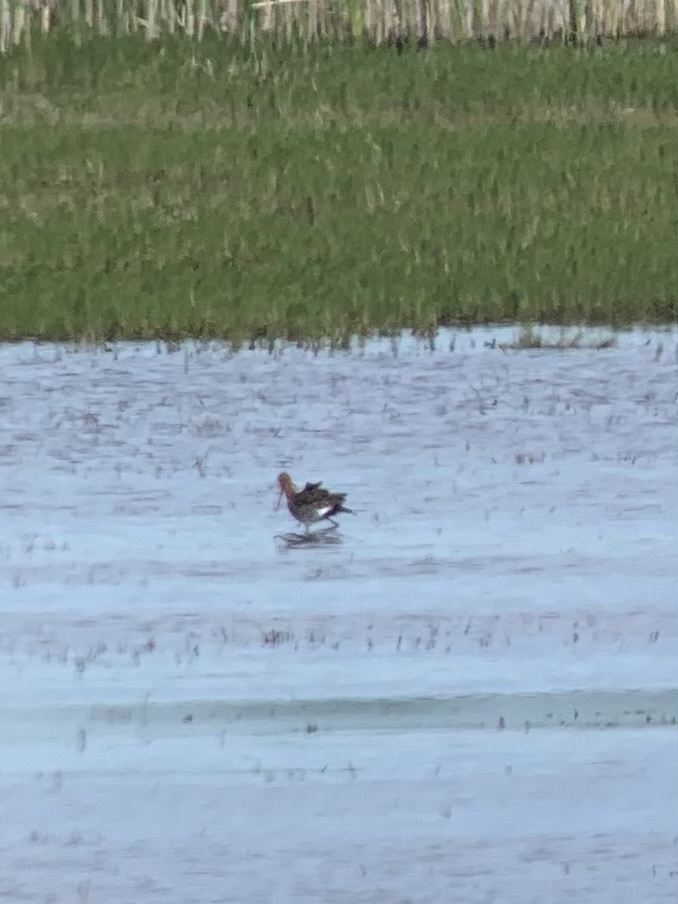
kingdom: Animalia
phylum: Chordata
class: Aves
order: Charadriiformes
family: Scolopacidae
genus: Limosa
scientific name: Limosa limosa
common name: Black-tailed godwit
